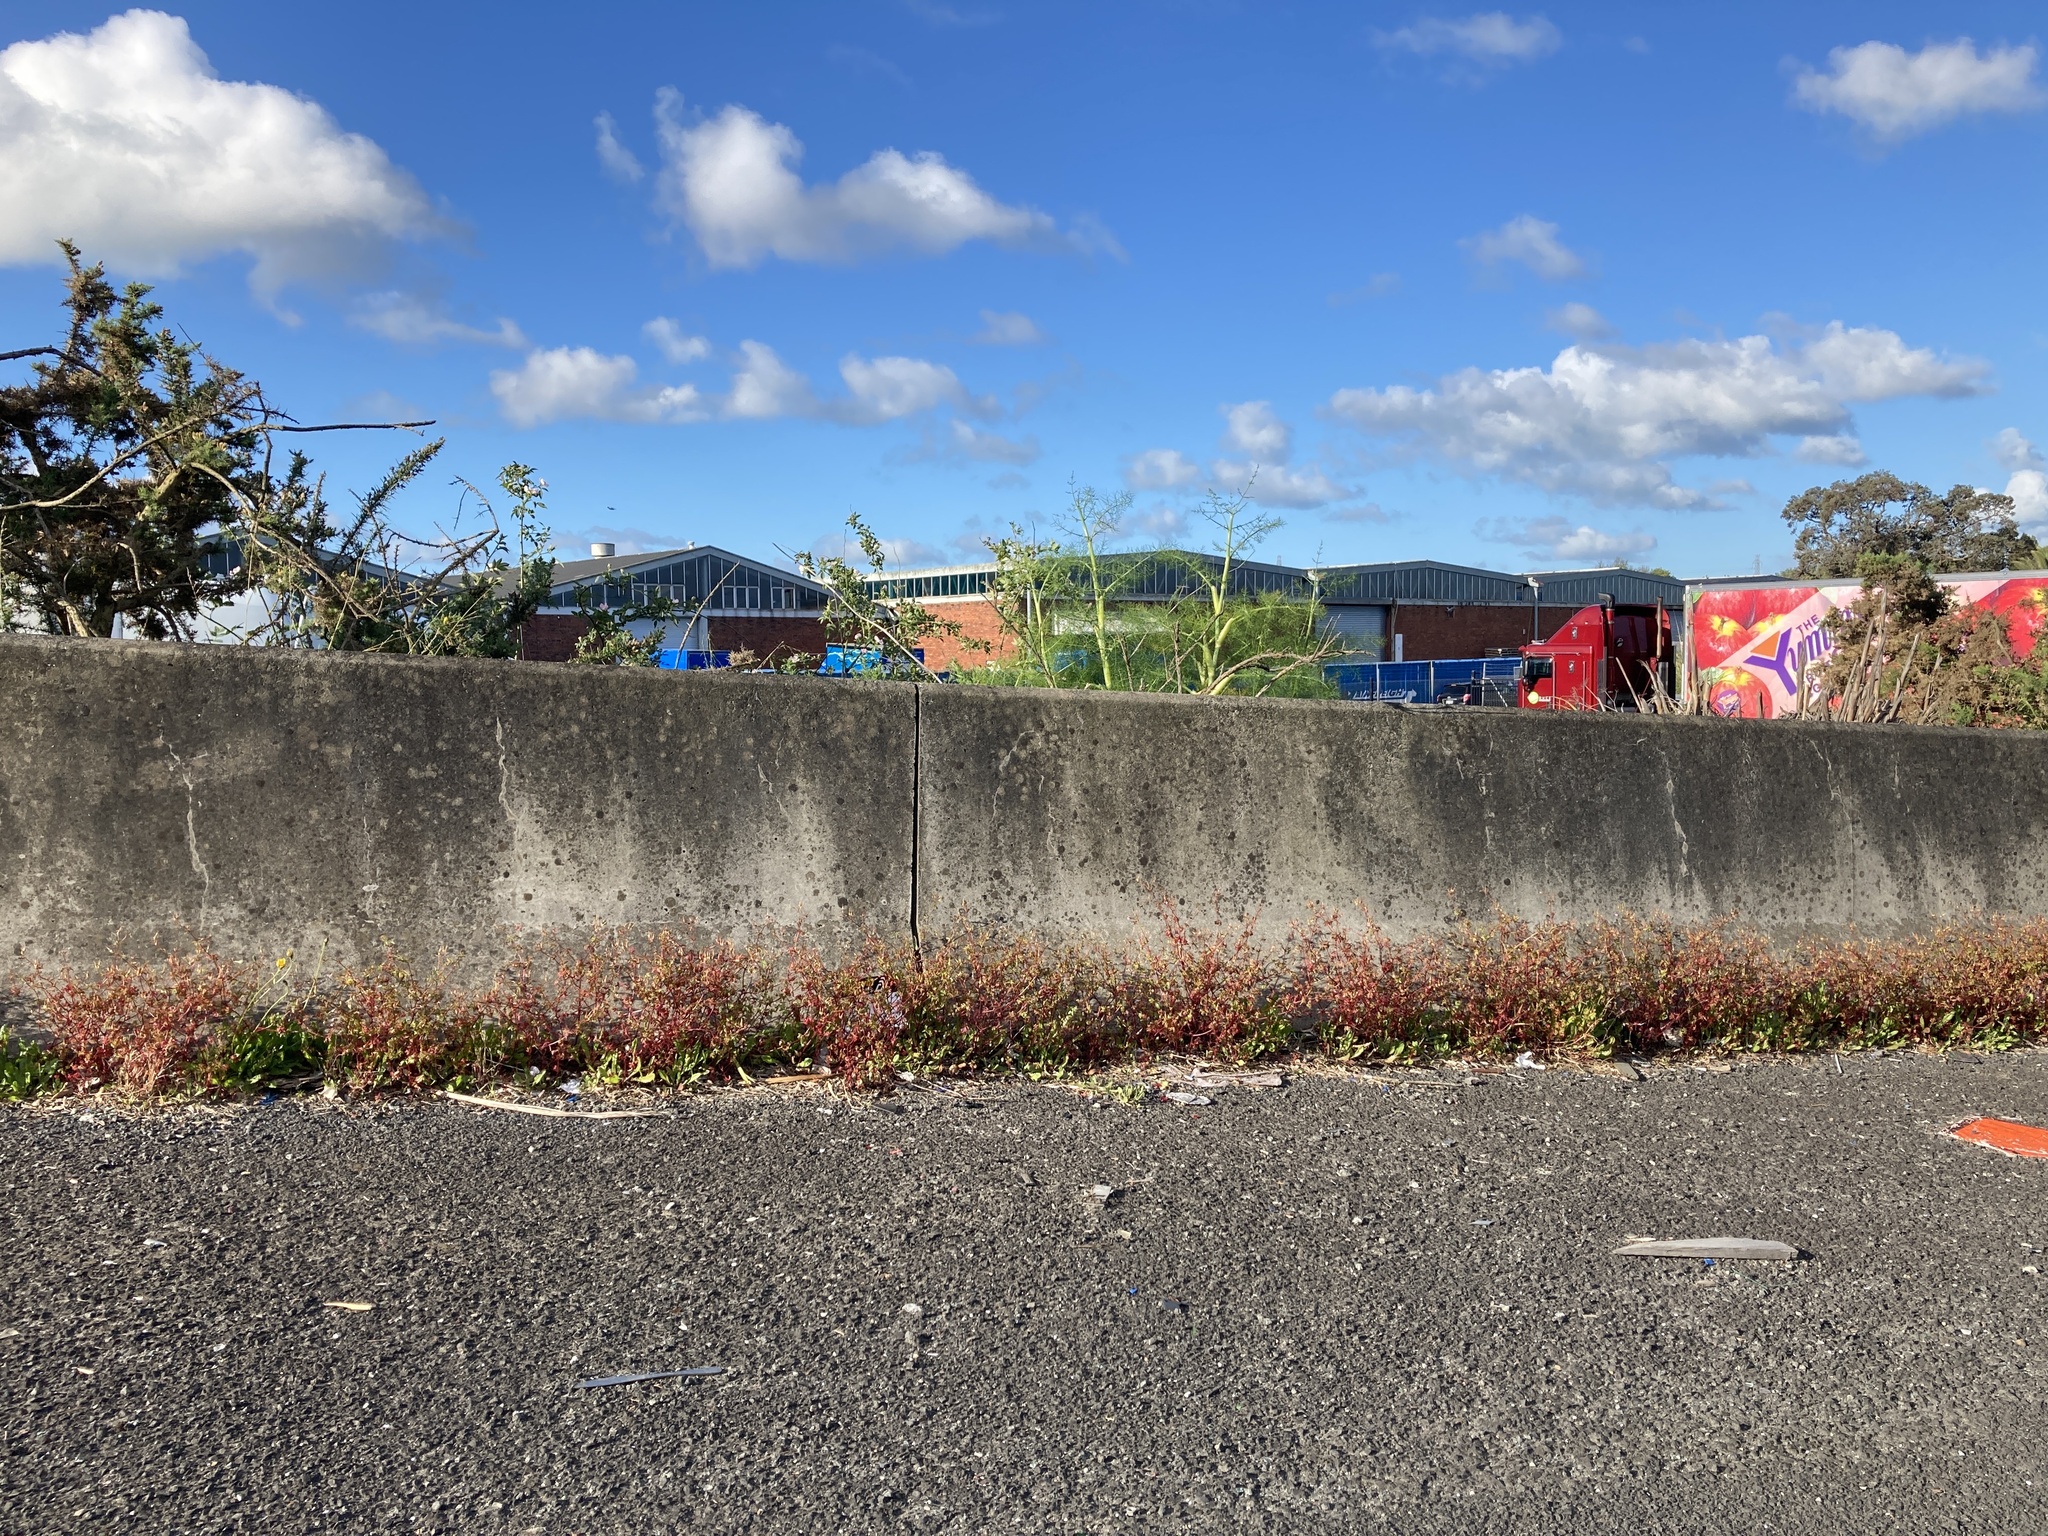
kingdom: Plantae
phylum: Tracheophyta
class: Magnoliopsida
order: Fabales
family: Fabaceae
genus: Ulex
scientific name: Ulex europaeus
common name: Common gorse
